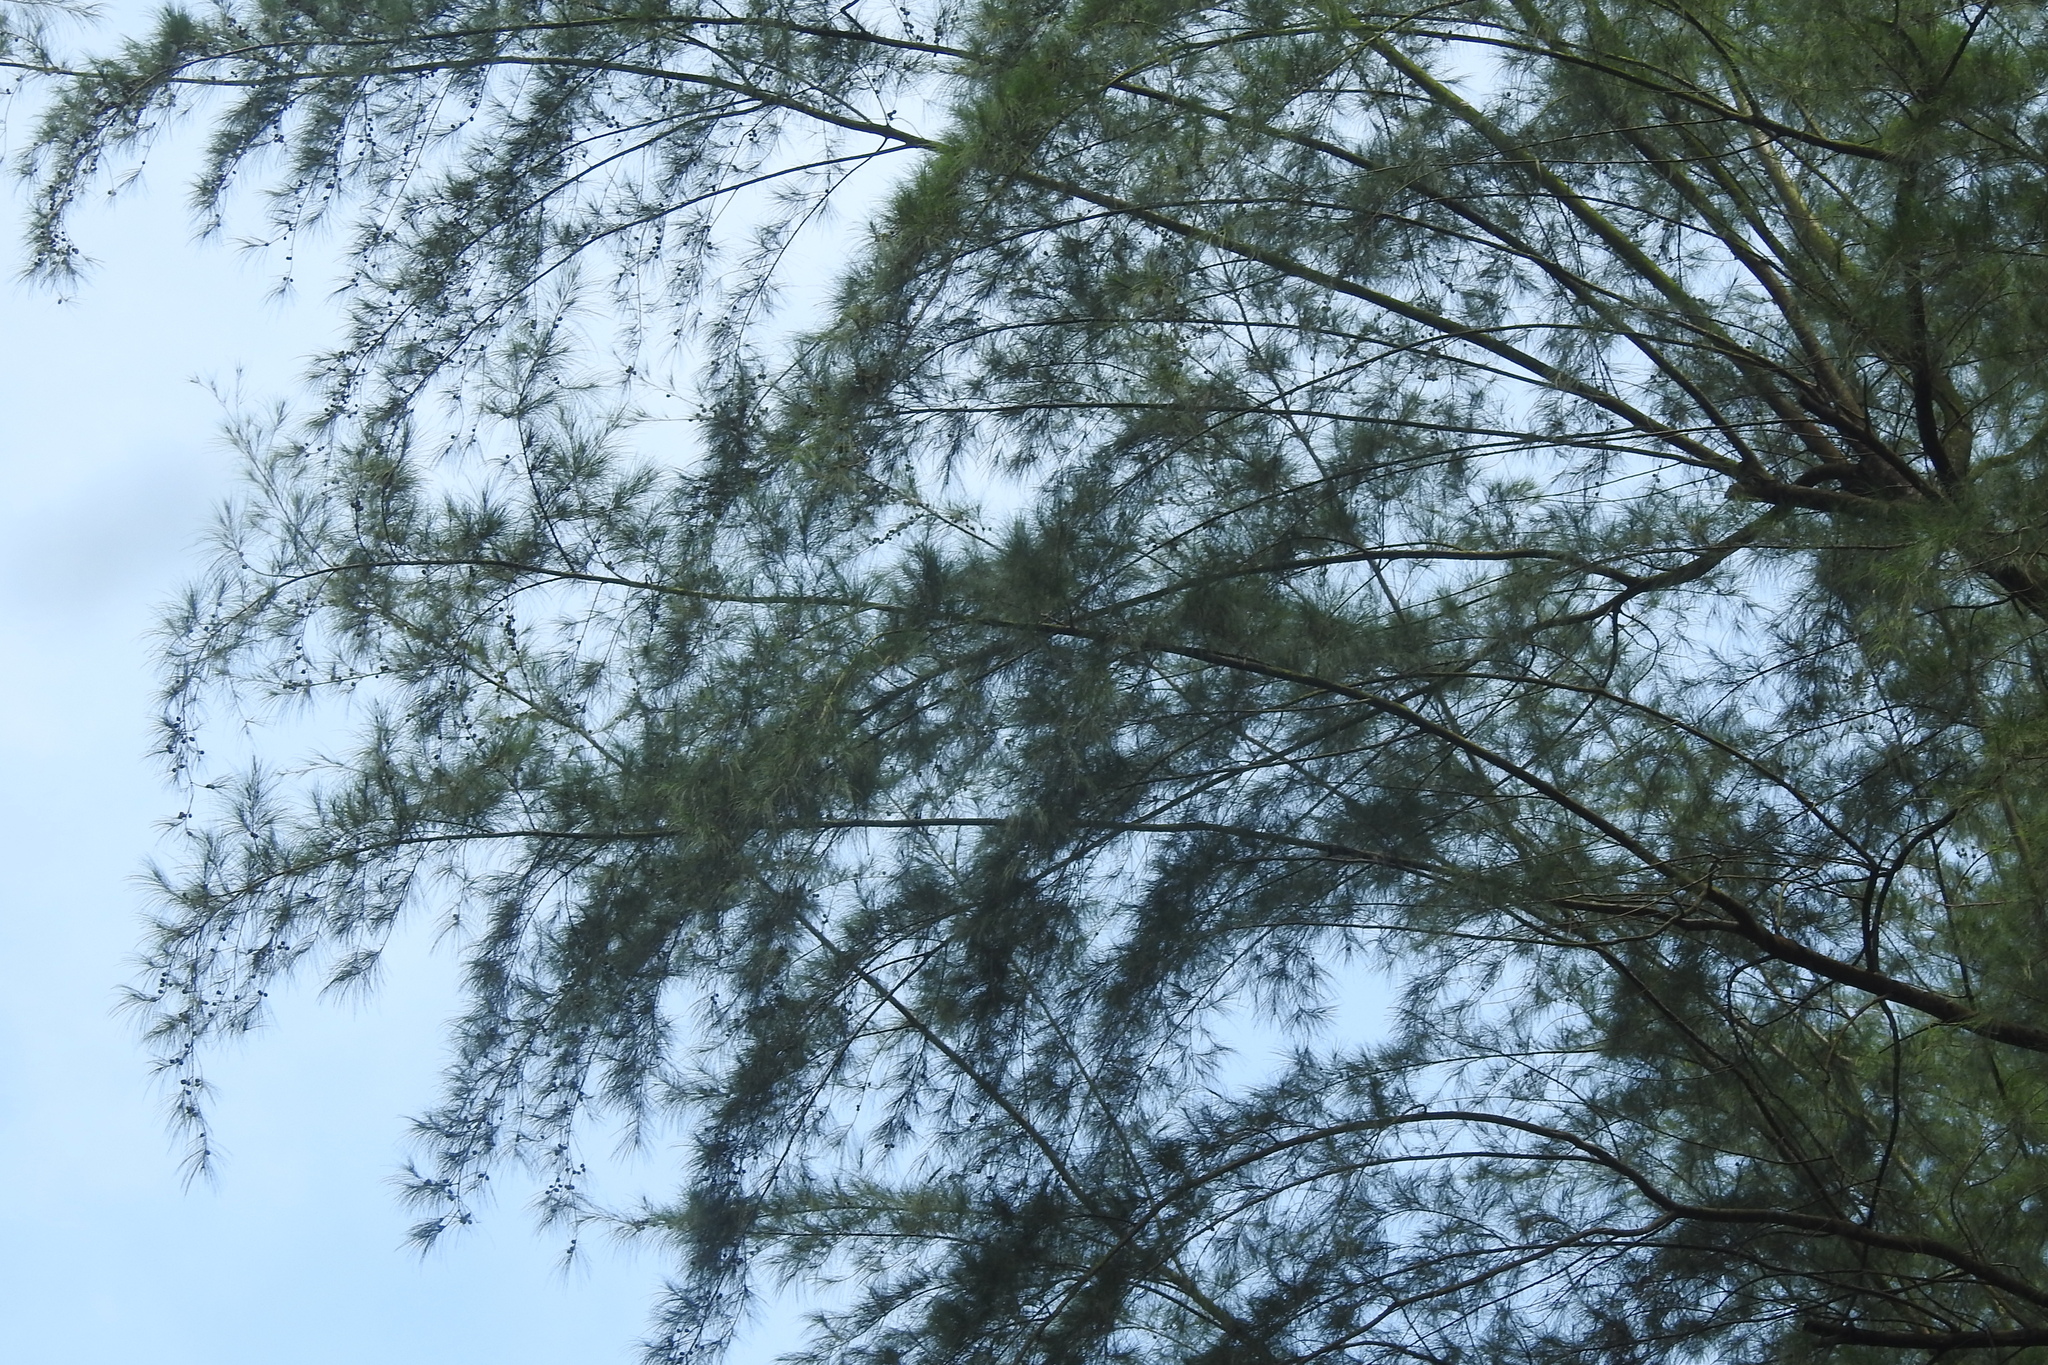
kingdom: Plantae
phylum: Tracheophyta
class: Magnoliopsida
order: Fagales
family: Casuarinaceae
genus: Casuarina
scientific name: Casuarina equisetifolia
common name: Beach sheoak
